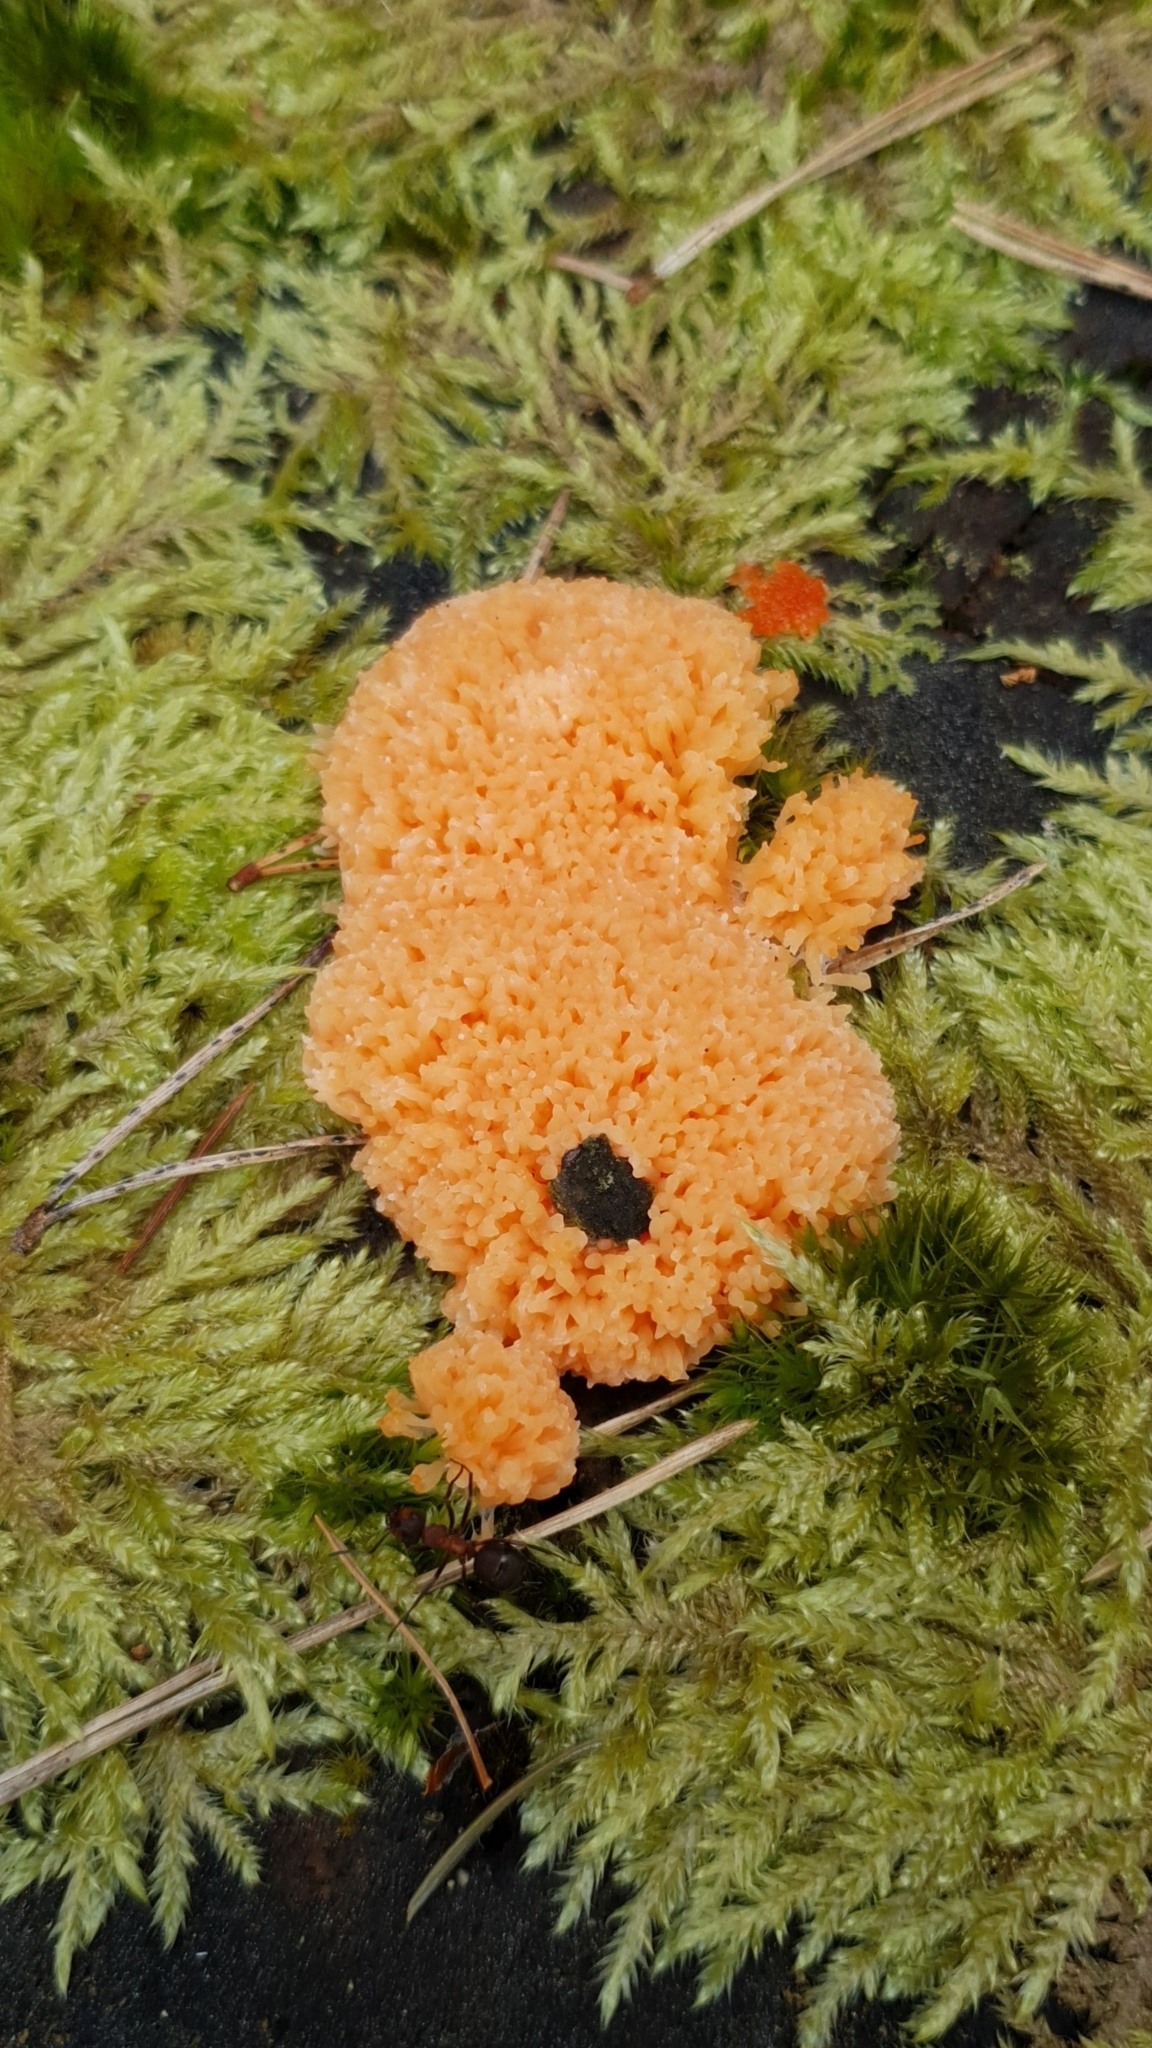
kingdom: Protozoa
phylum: Mycetozoa
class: Myxomycetes
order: Cribrariales
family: Tubiferaceae
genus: Tubifera
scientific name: Tubifera ferruginosa
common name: Red raspberry slime mold
